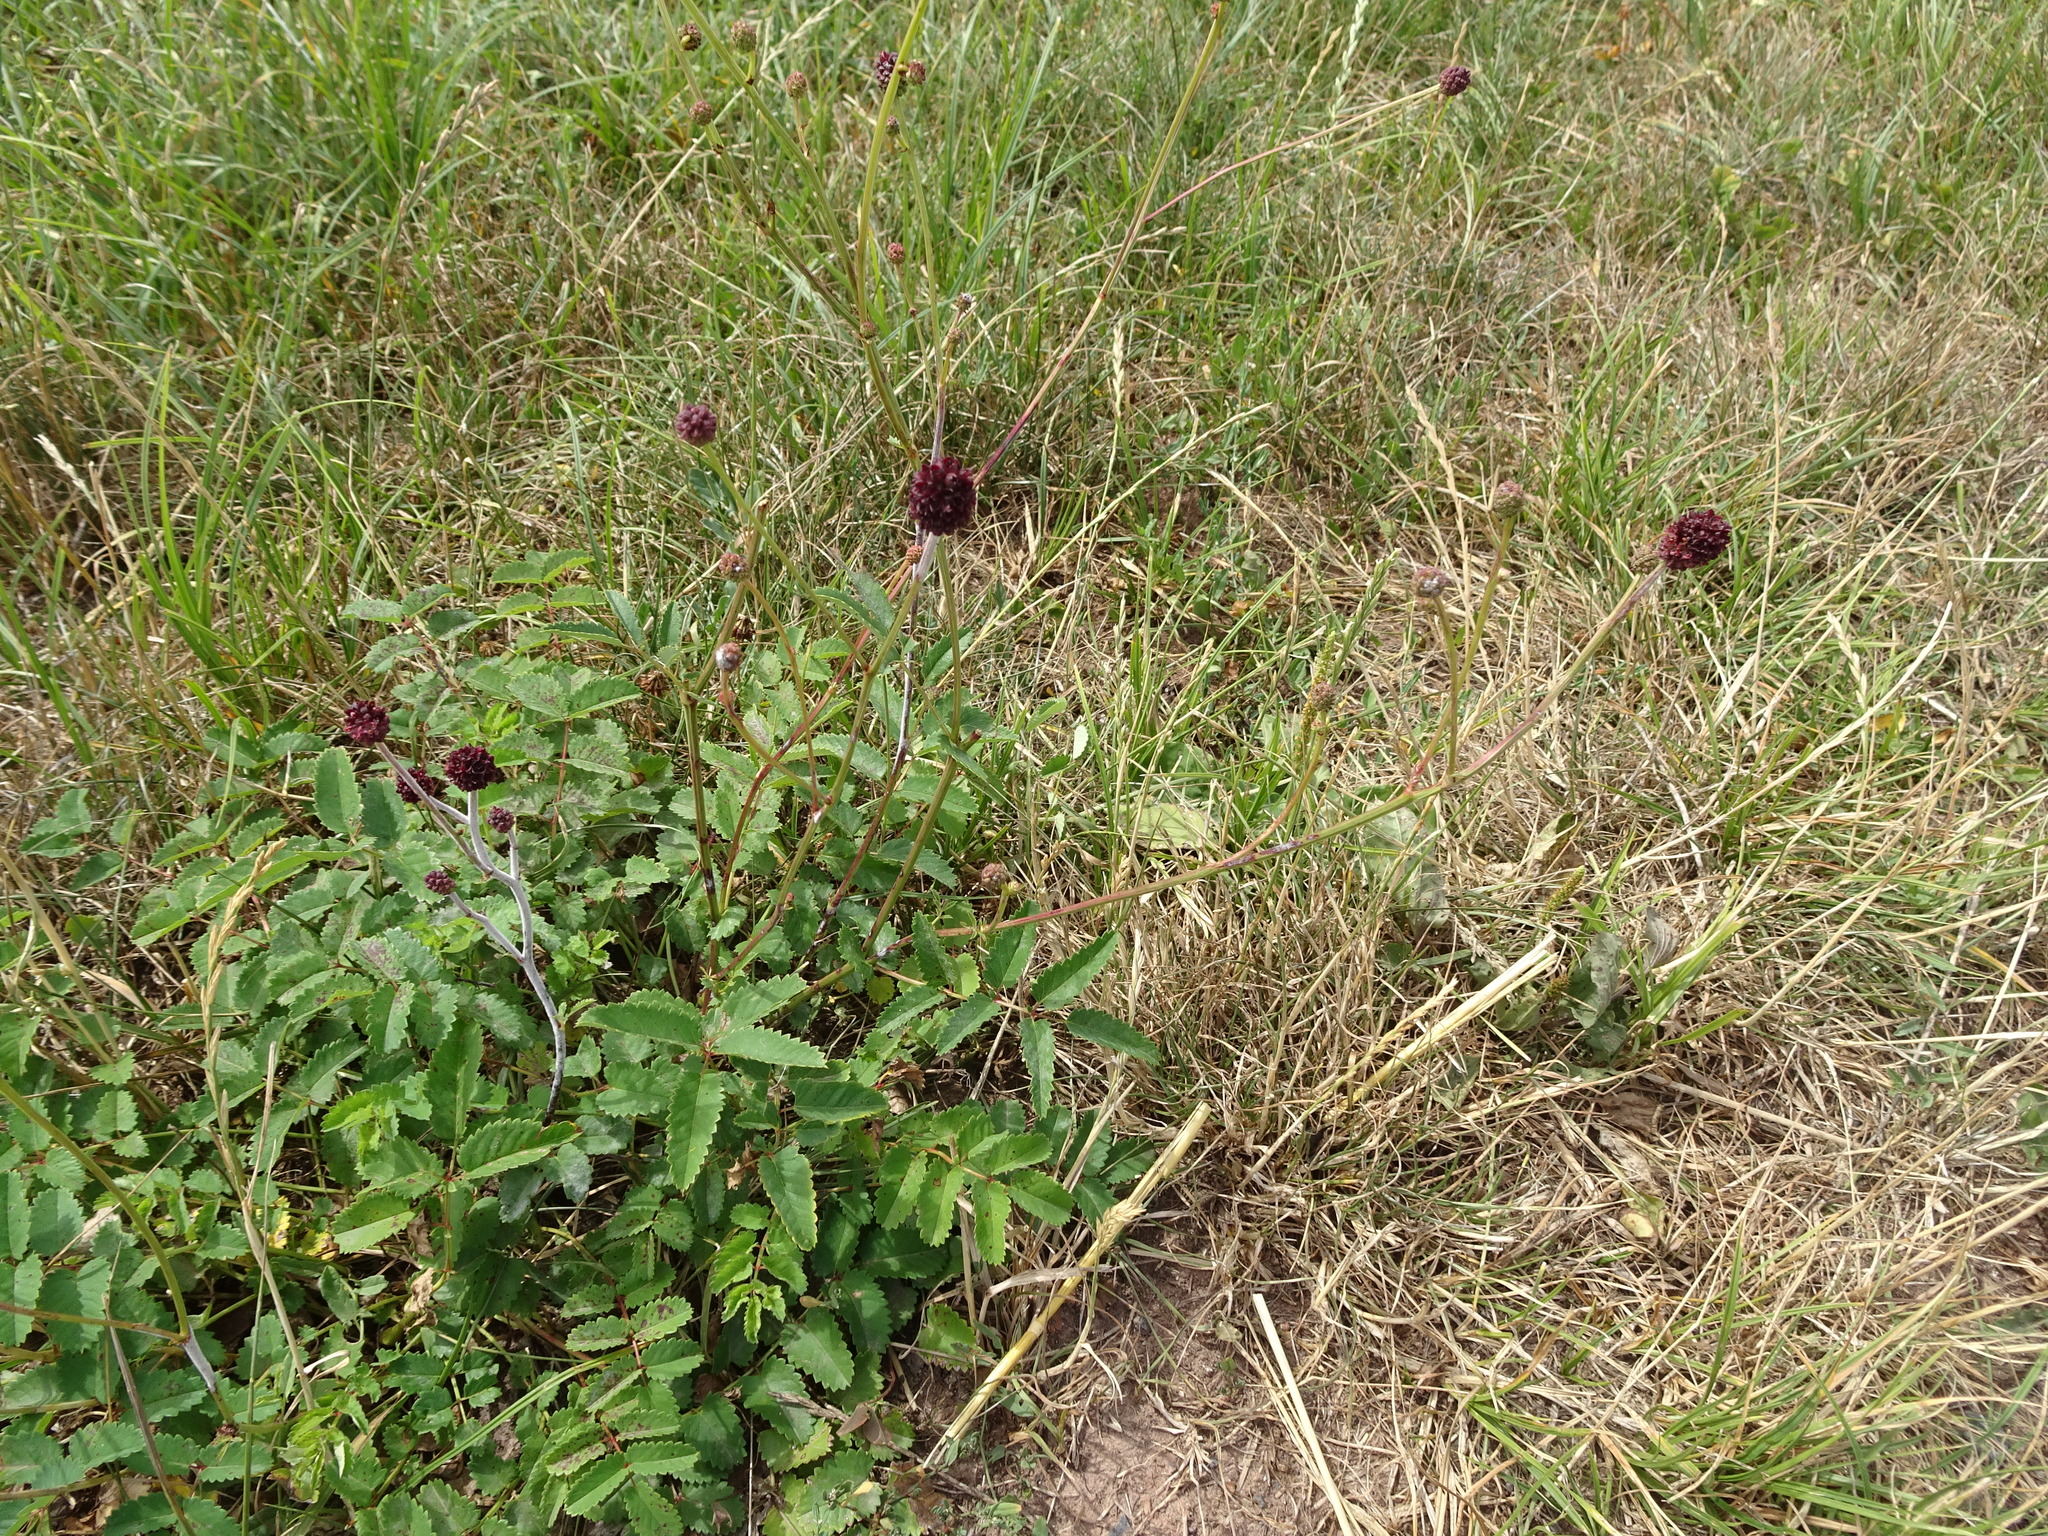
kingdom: Plantae
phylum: Tracheophyta
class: Magnoliopsida
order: Rosales
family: Rosaceae
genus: Sanguisorba
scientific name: Sanguisorba officinalis
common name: Great burnet
